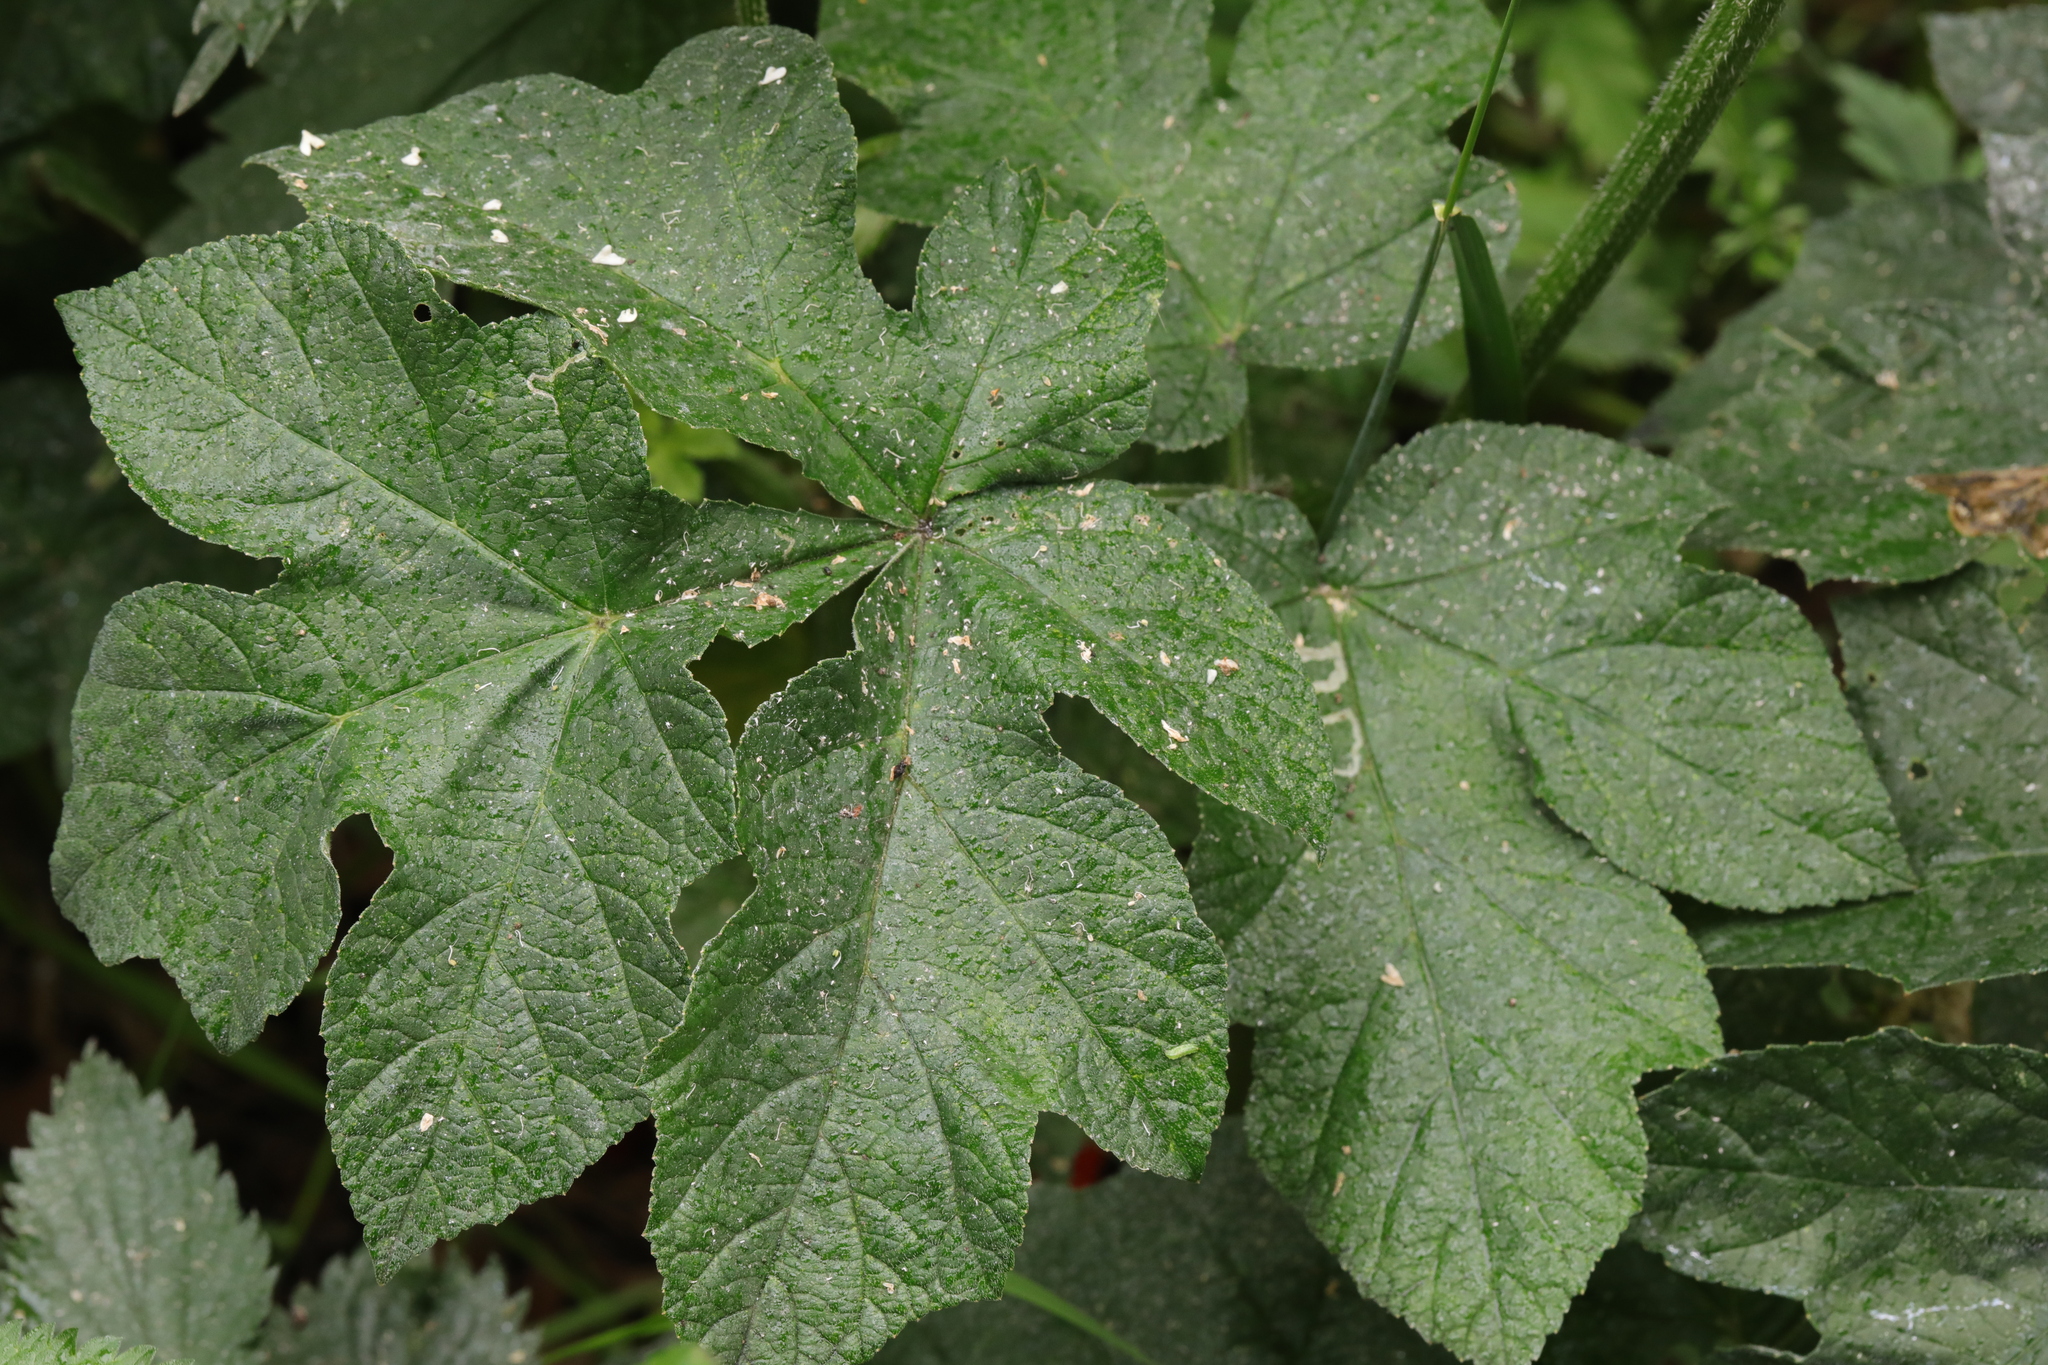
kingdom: Plantae
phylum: Tracheophyta
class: Magnoliopsida
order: Apiales
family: Apiaceae
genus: Heracleum
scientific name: Heracleum sphondylium
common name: Hogweed
